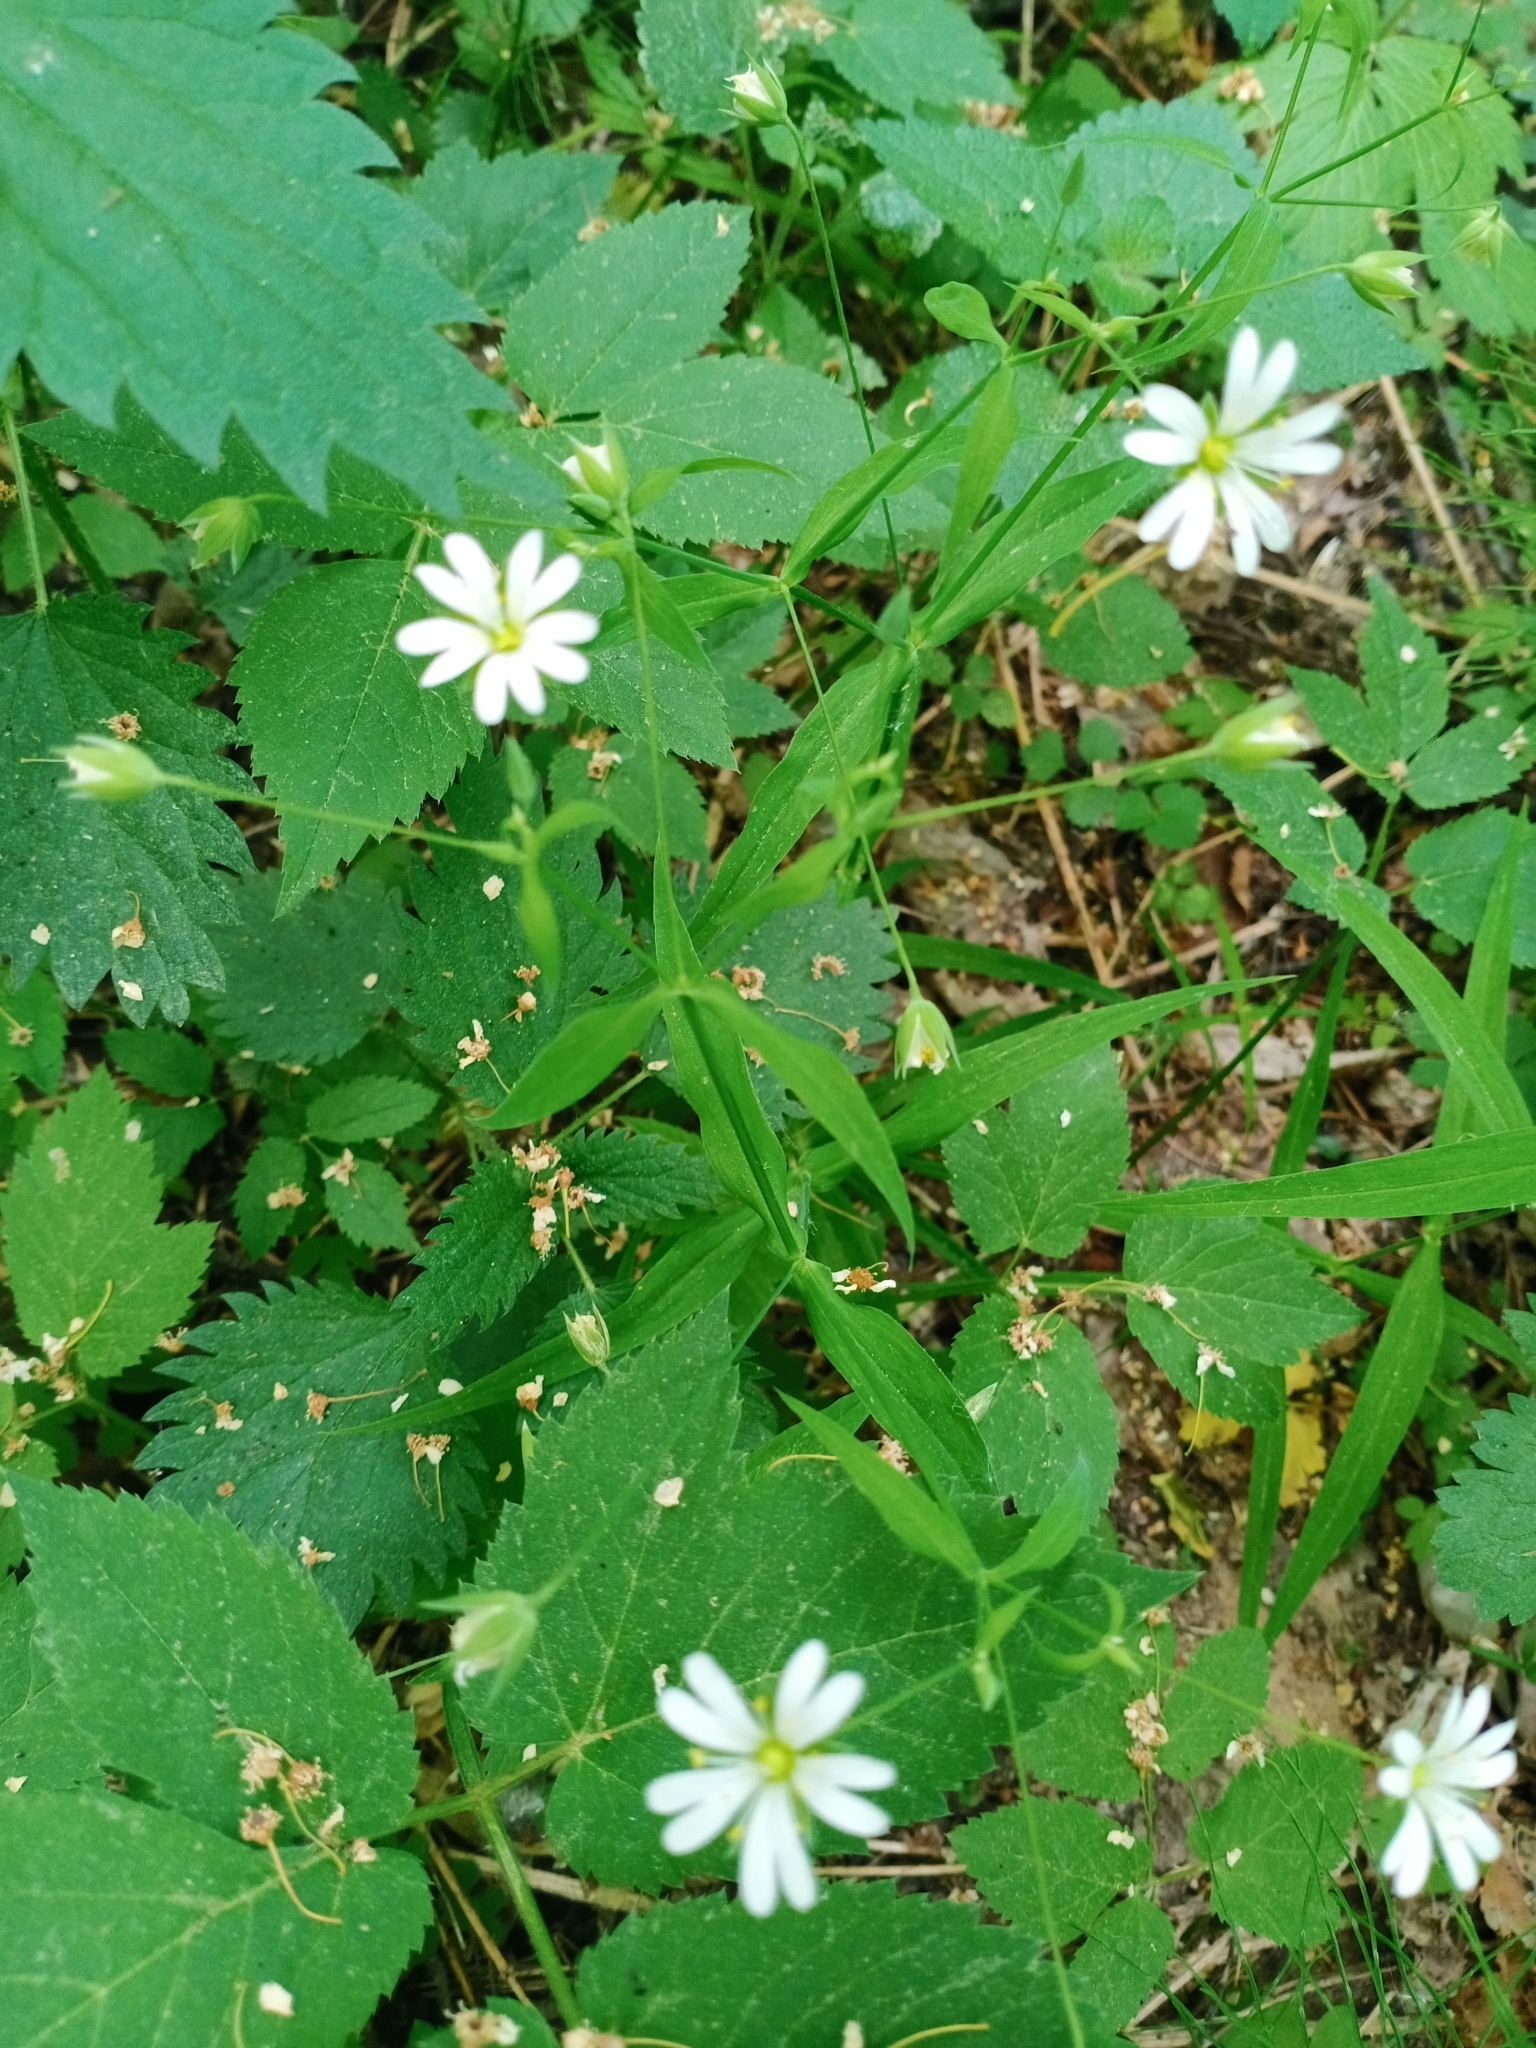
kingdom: Plantae
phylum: Tracheophyta
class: Magnoliopsida
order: Caryophyllales
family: Caryophyllaceae
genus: Rabelera
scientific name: Rabelera holostea
